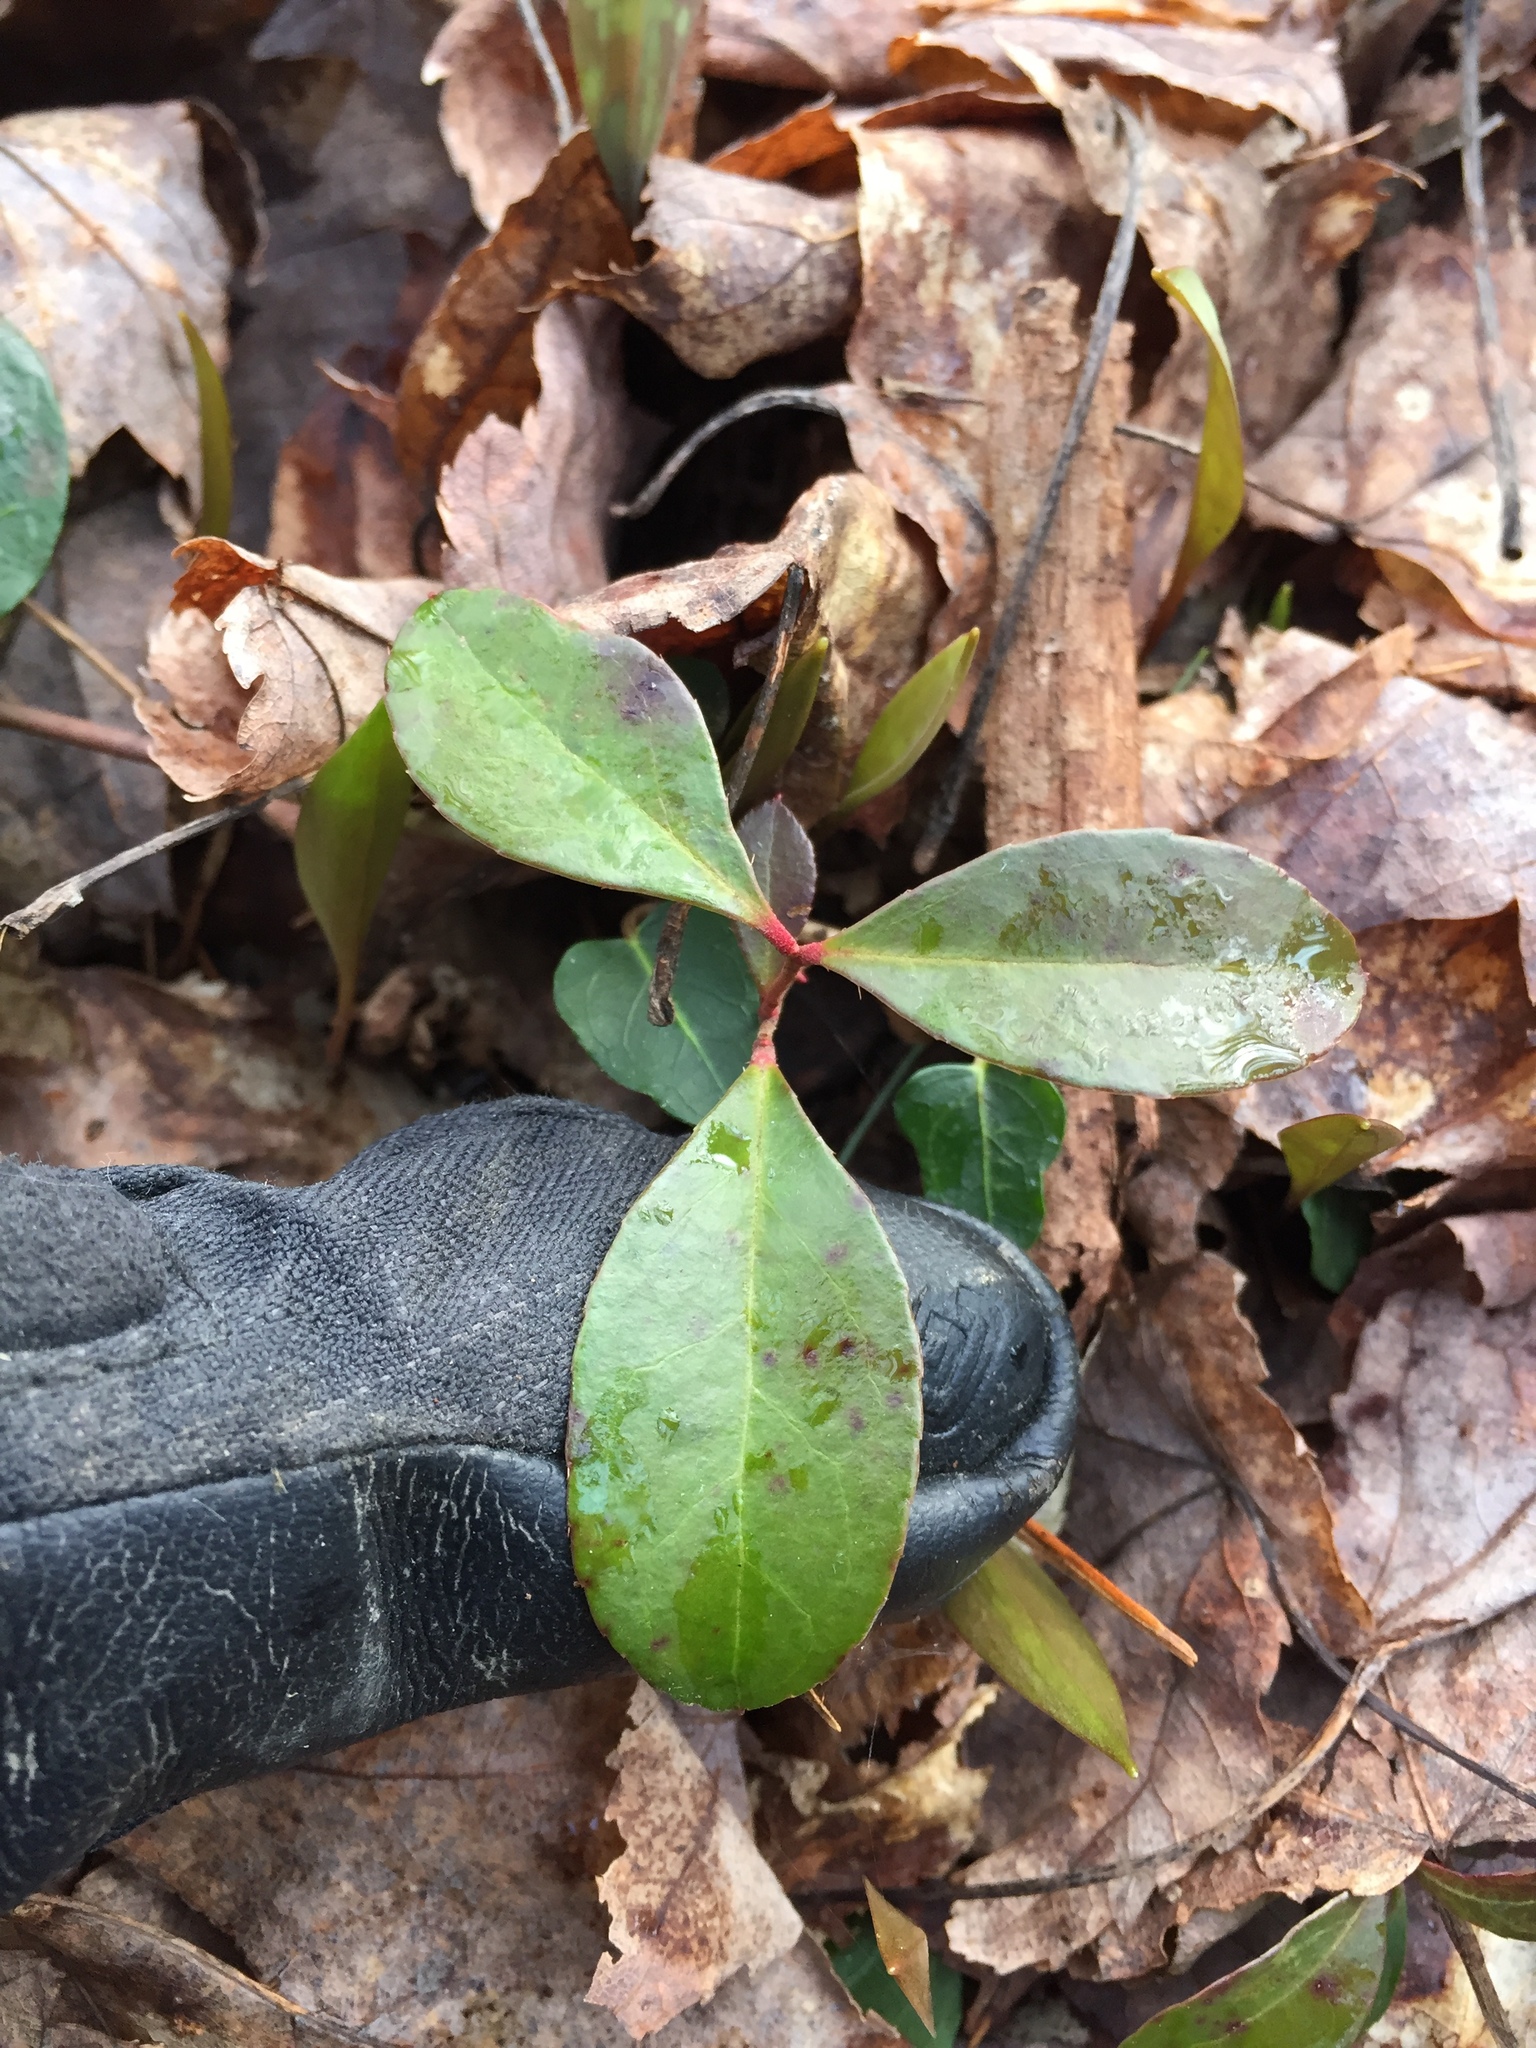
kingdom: Plantae
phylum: Tracheophyta
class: Magnoliopsida
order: Ericales
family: Ericaceae
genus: Gaultheria
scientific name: Gaultheria procumbens
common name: Checkerberry
